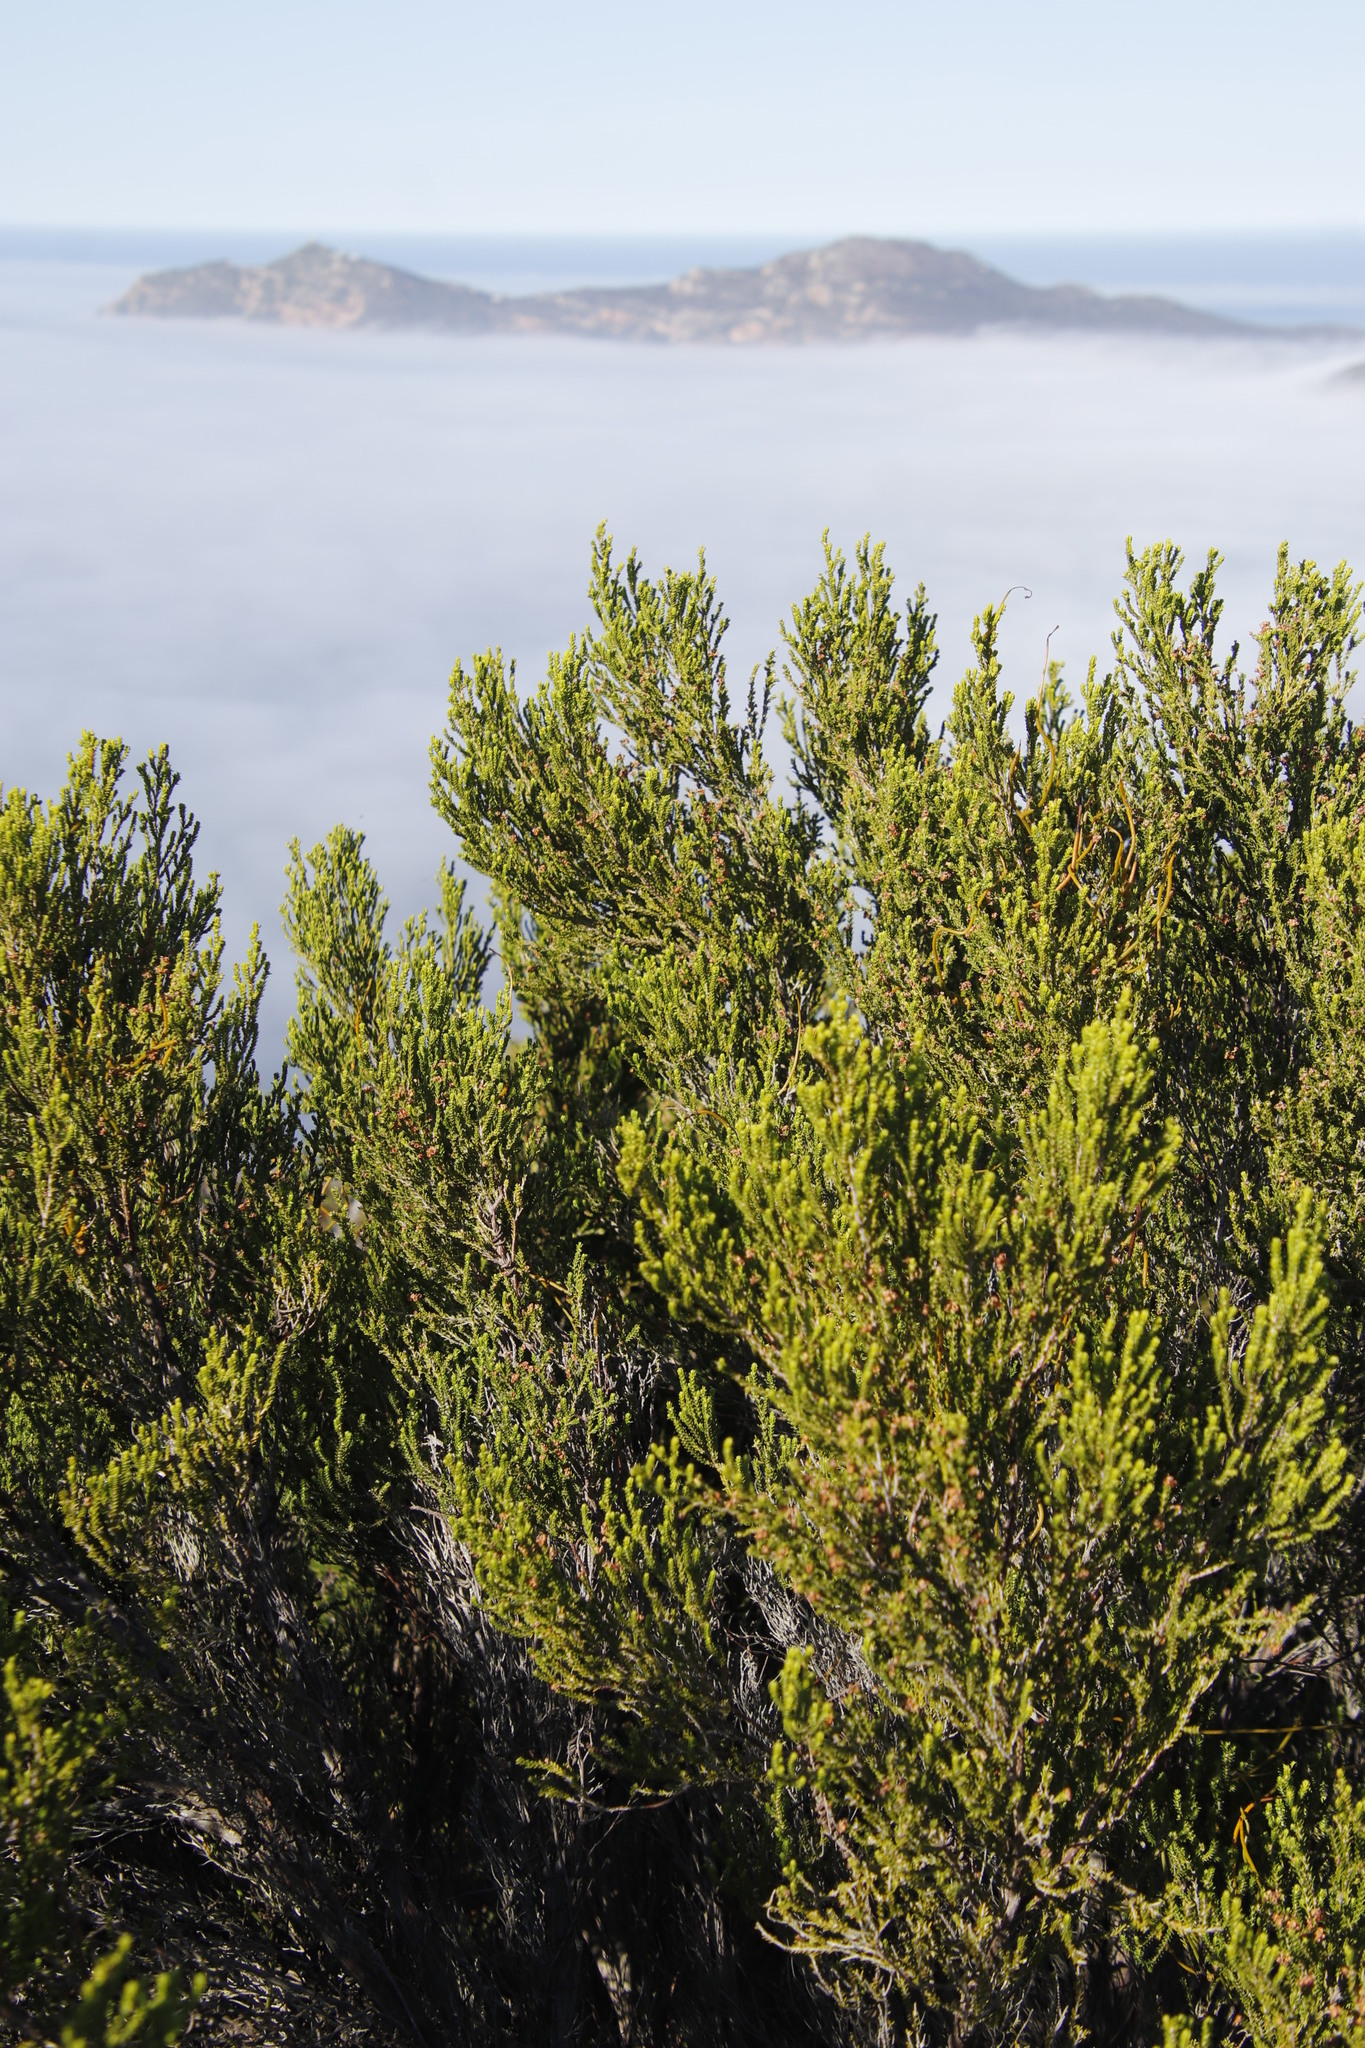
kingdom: Plantae
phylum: Tracheophyta
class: Magnoliopsida
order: Ericales
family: Ericaceae
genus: Erica
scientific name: Erica tristis
